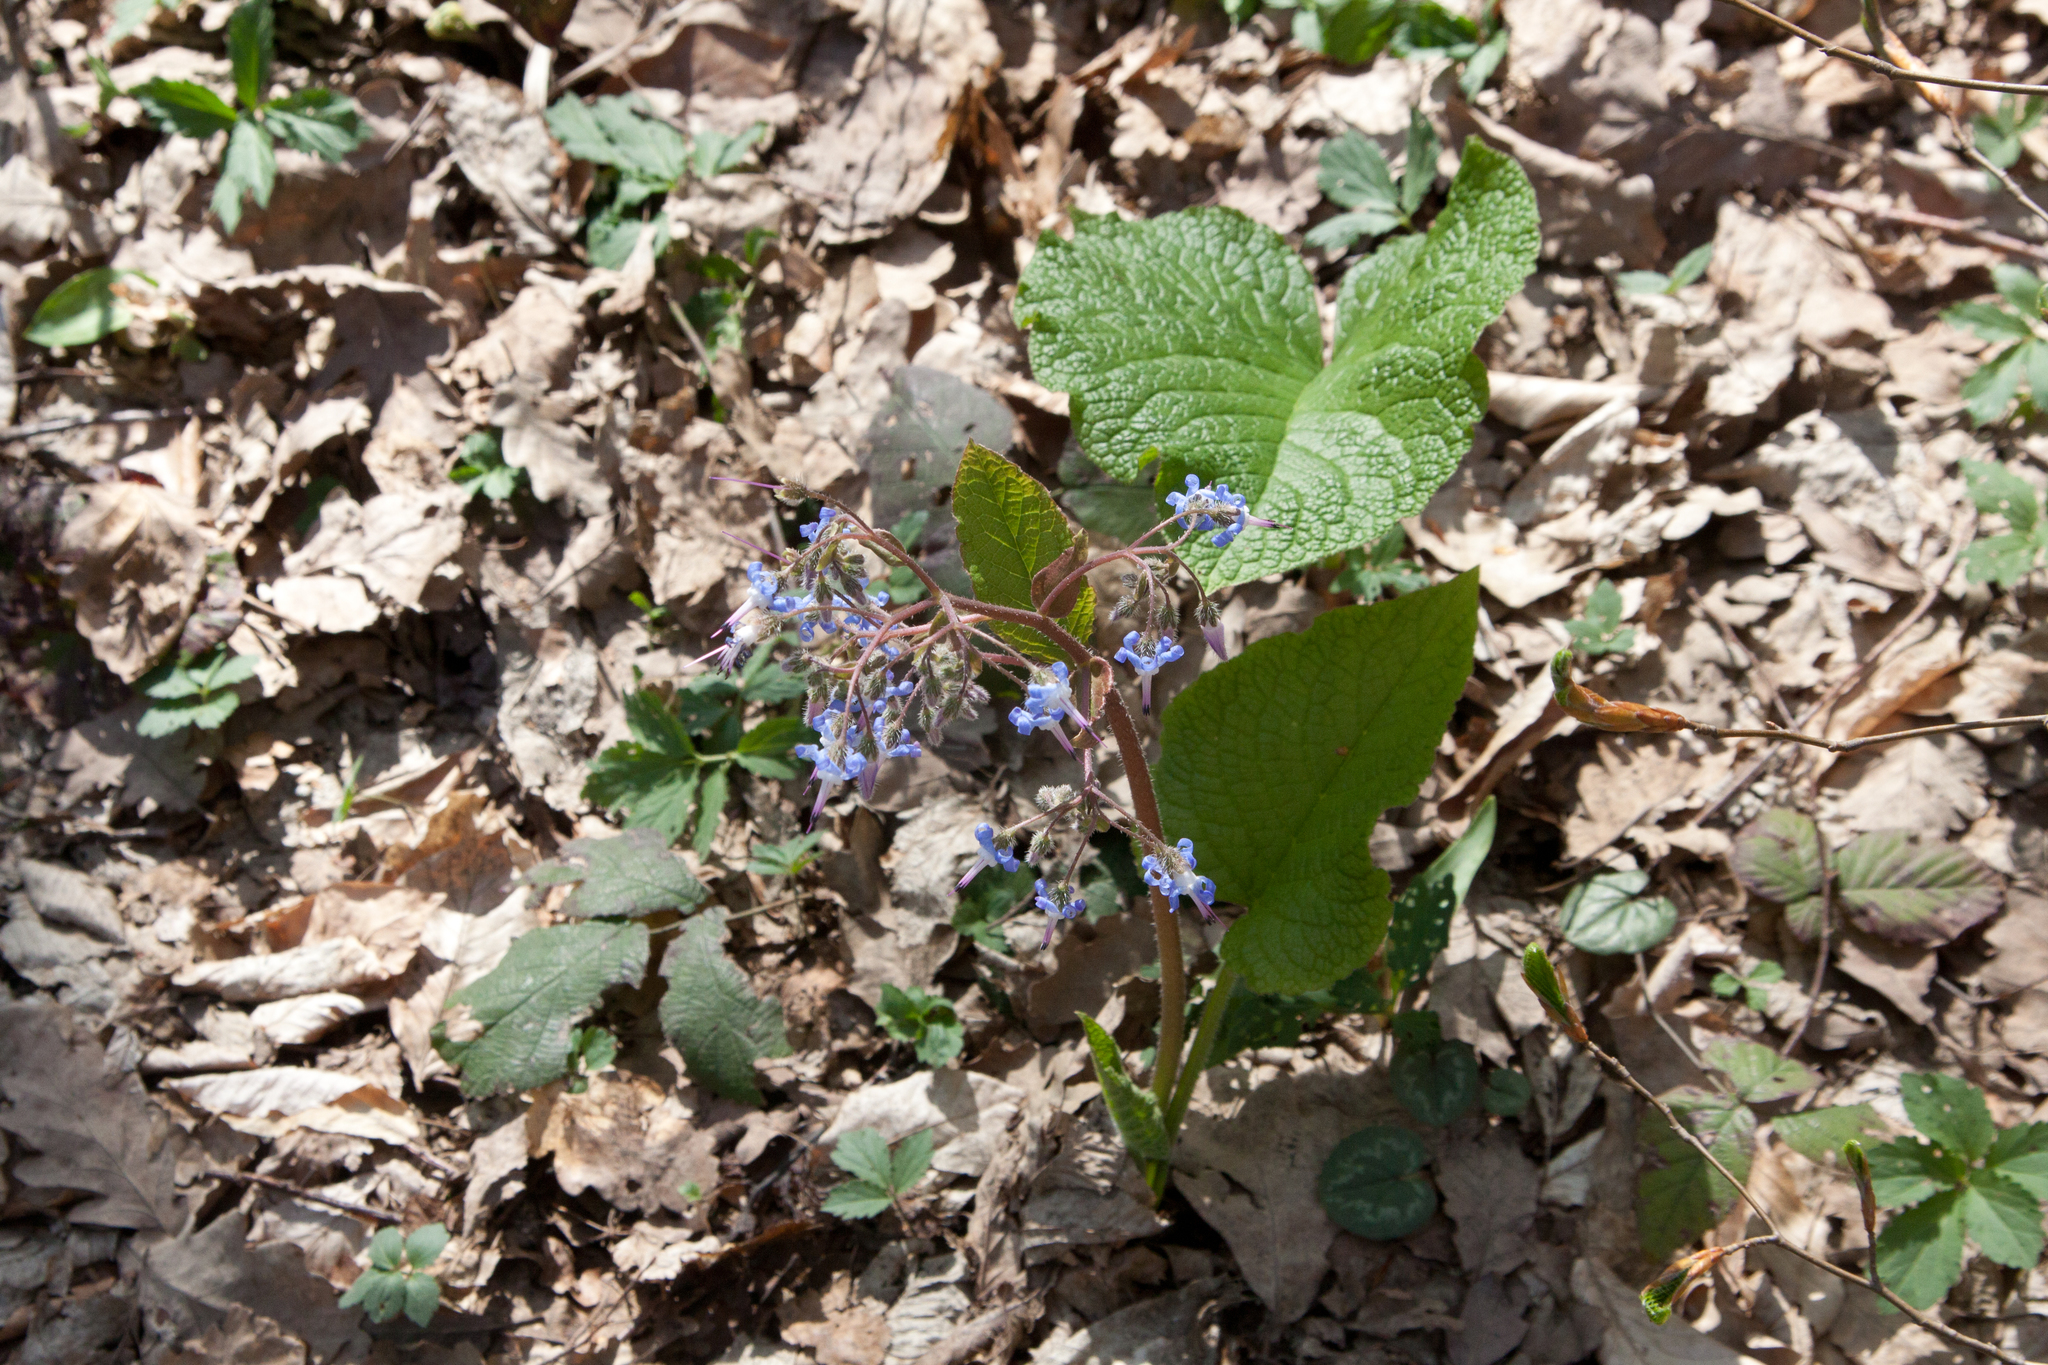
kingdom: Plantae
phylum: Tracheophyta
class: Magnoliopsida
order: Boraginales
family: Boraginaceae
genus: Trachystemon
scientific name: Trachystemon orientale
